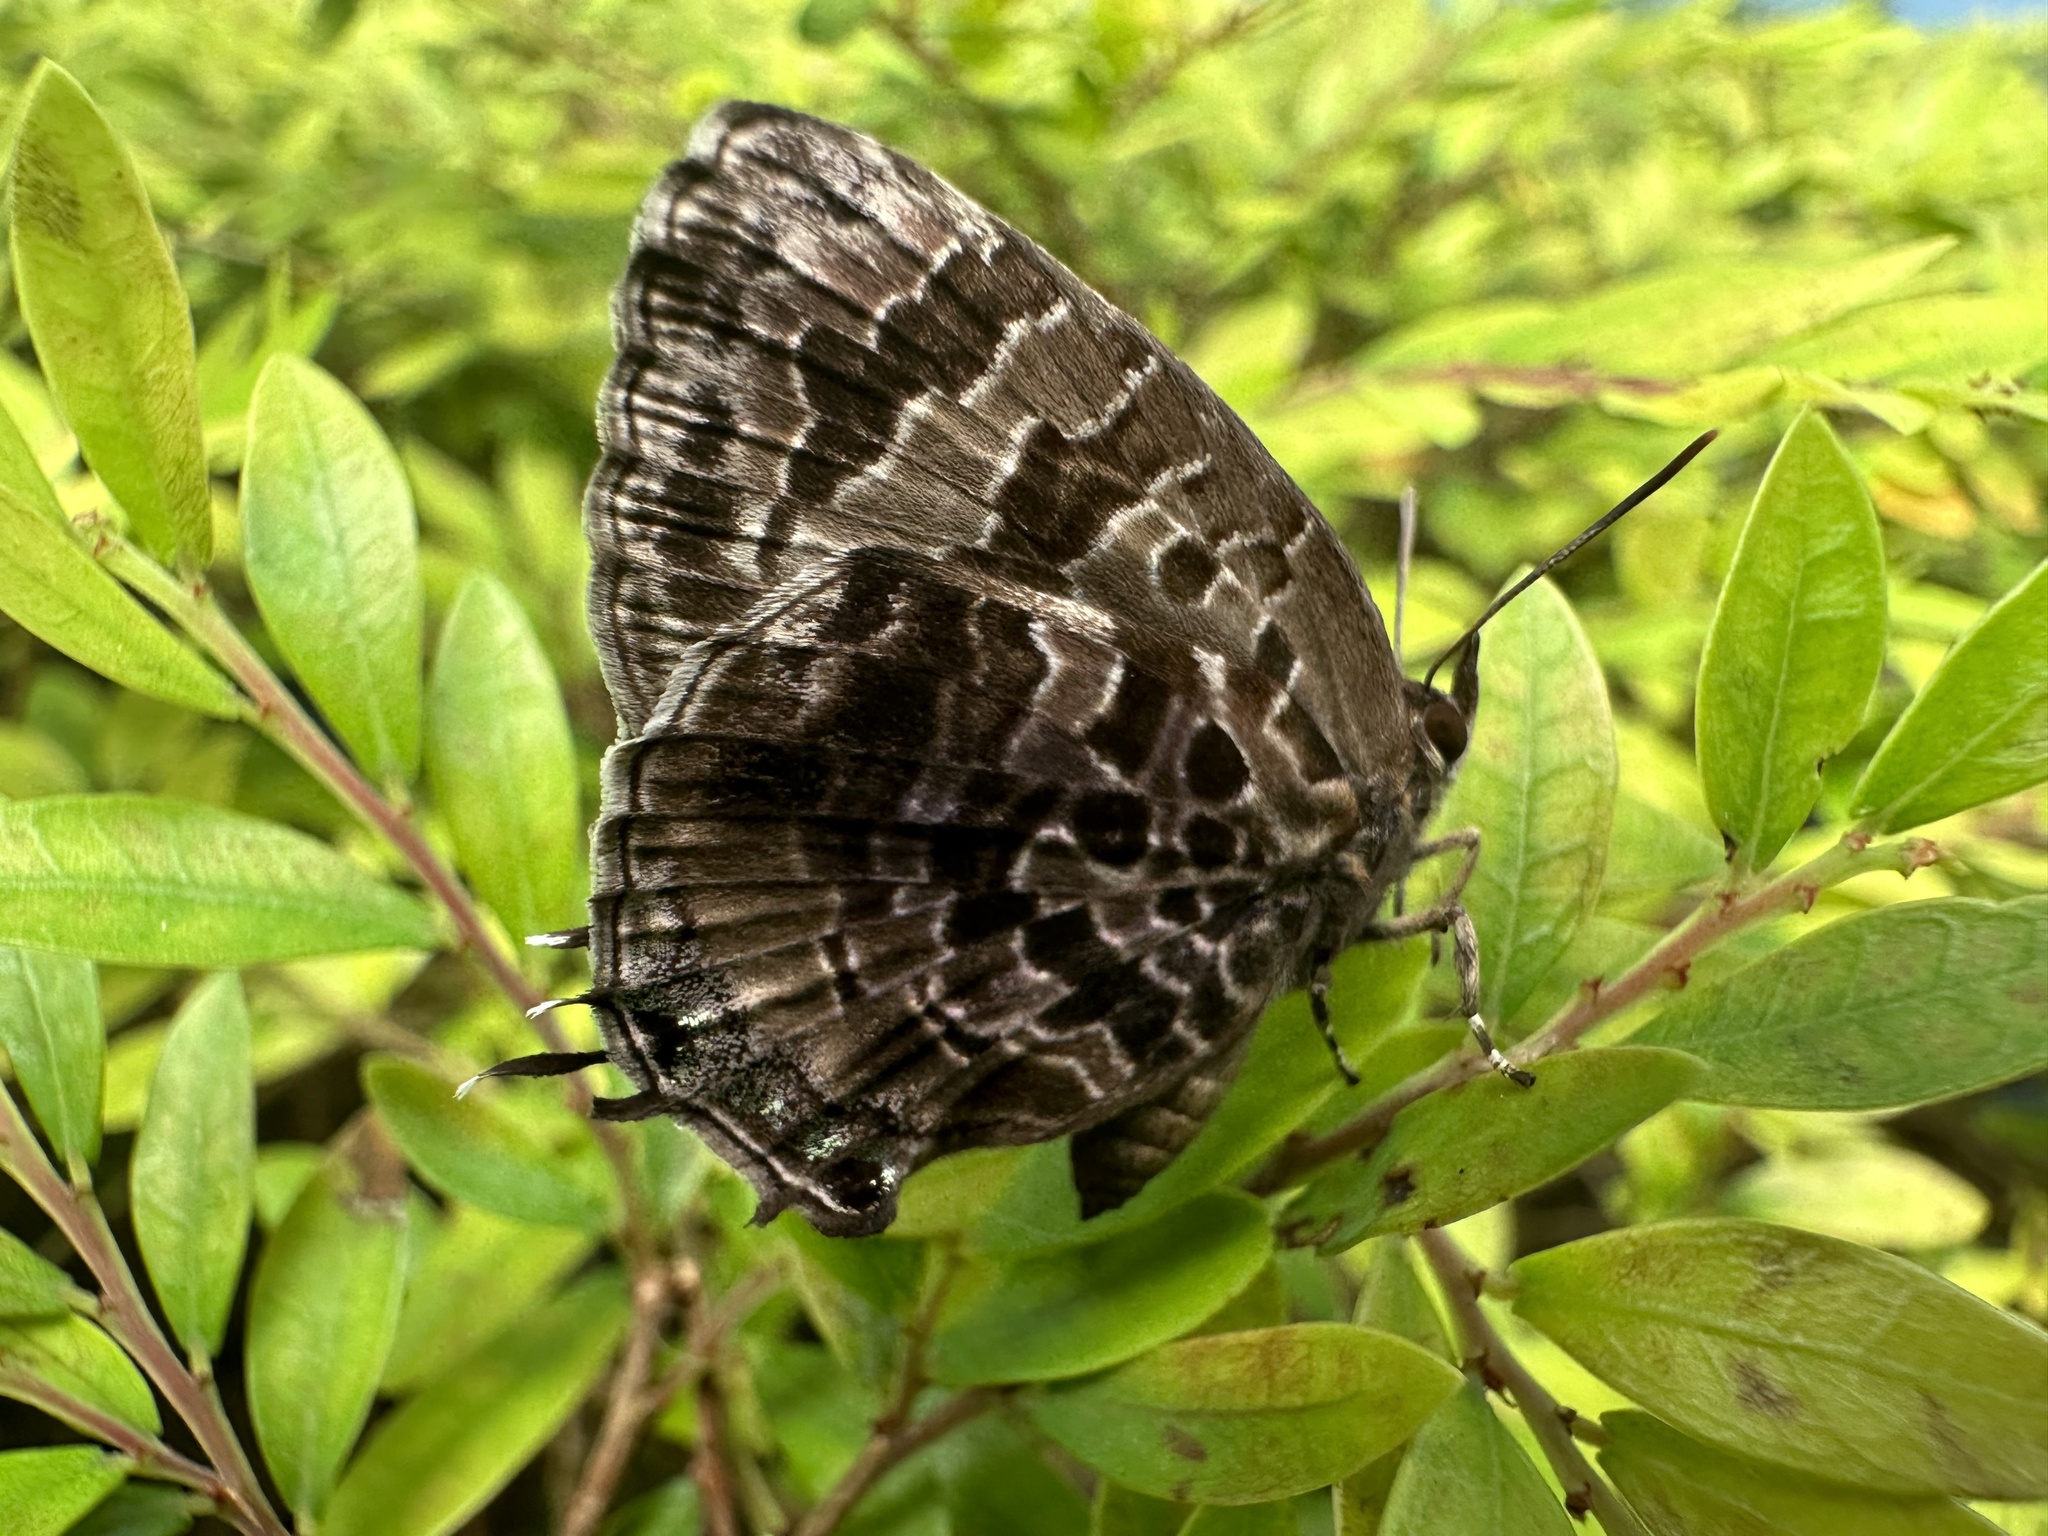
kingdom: Animalia
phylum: Arthropoda
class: Insecta
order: Lepidoptera
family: Lycaenidae
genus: Arhopala
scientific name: Arhopala abseus
